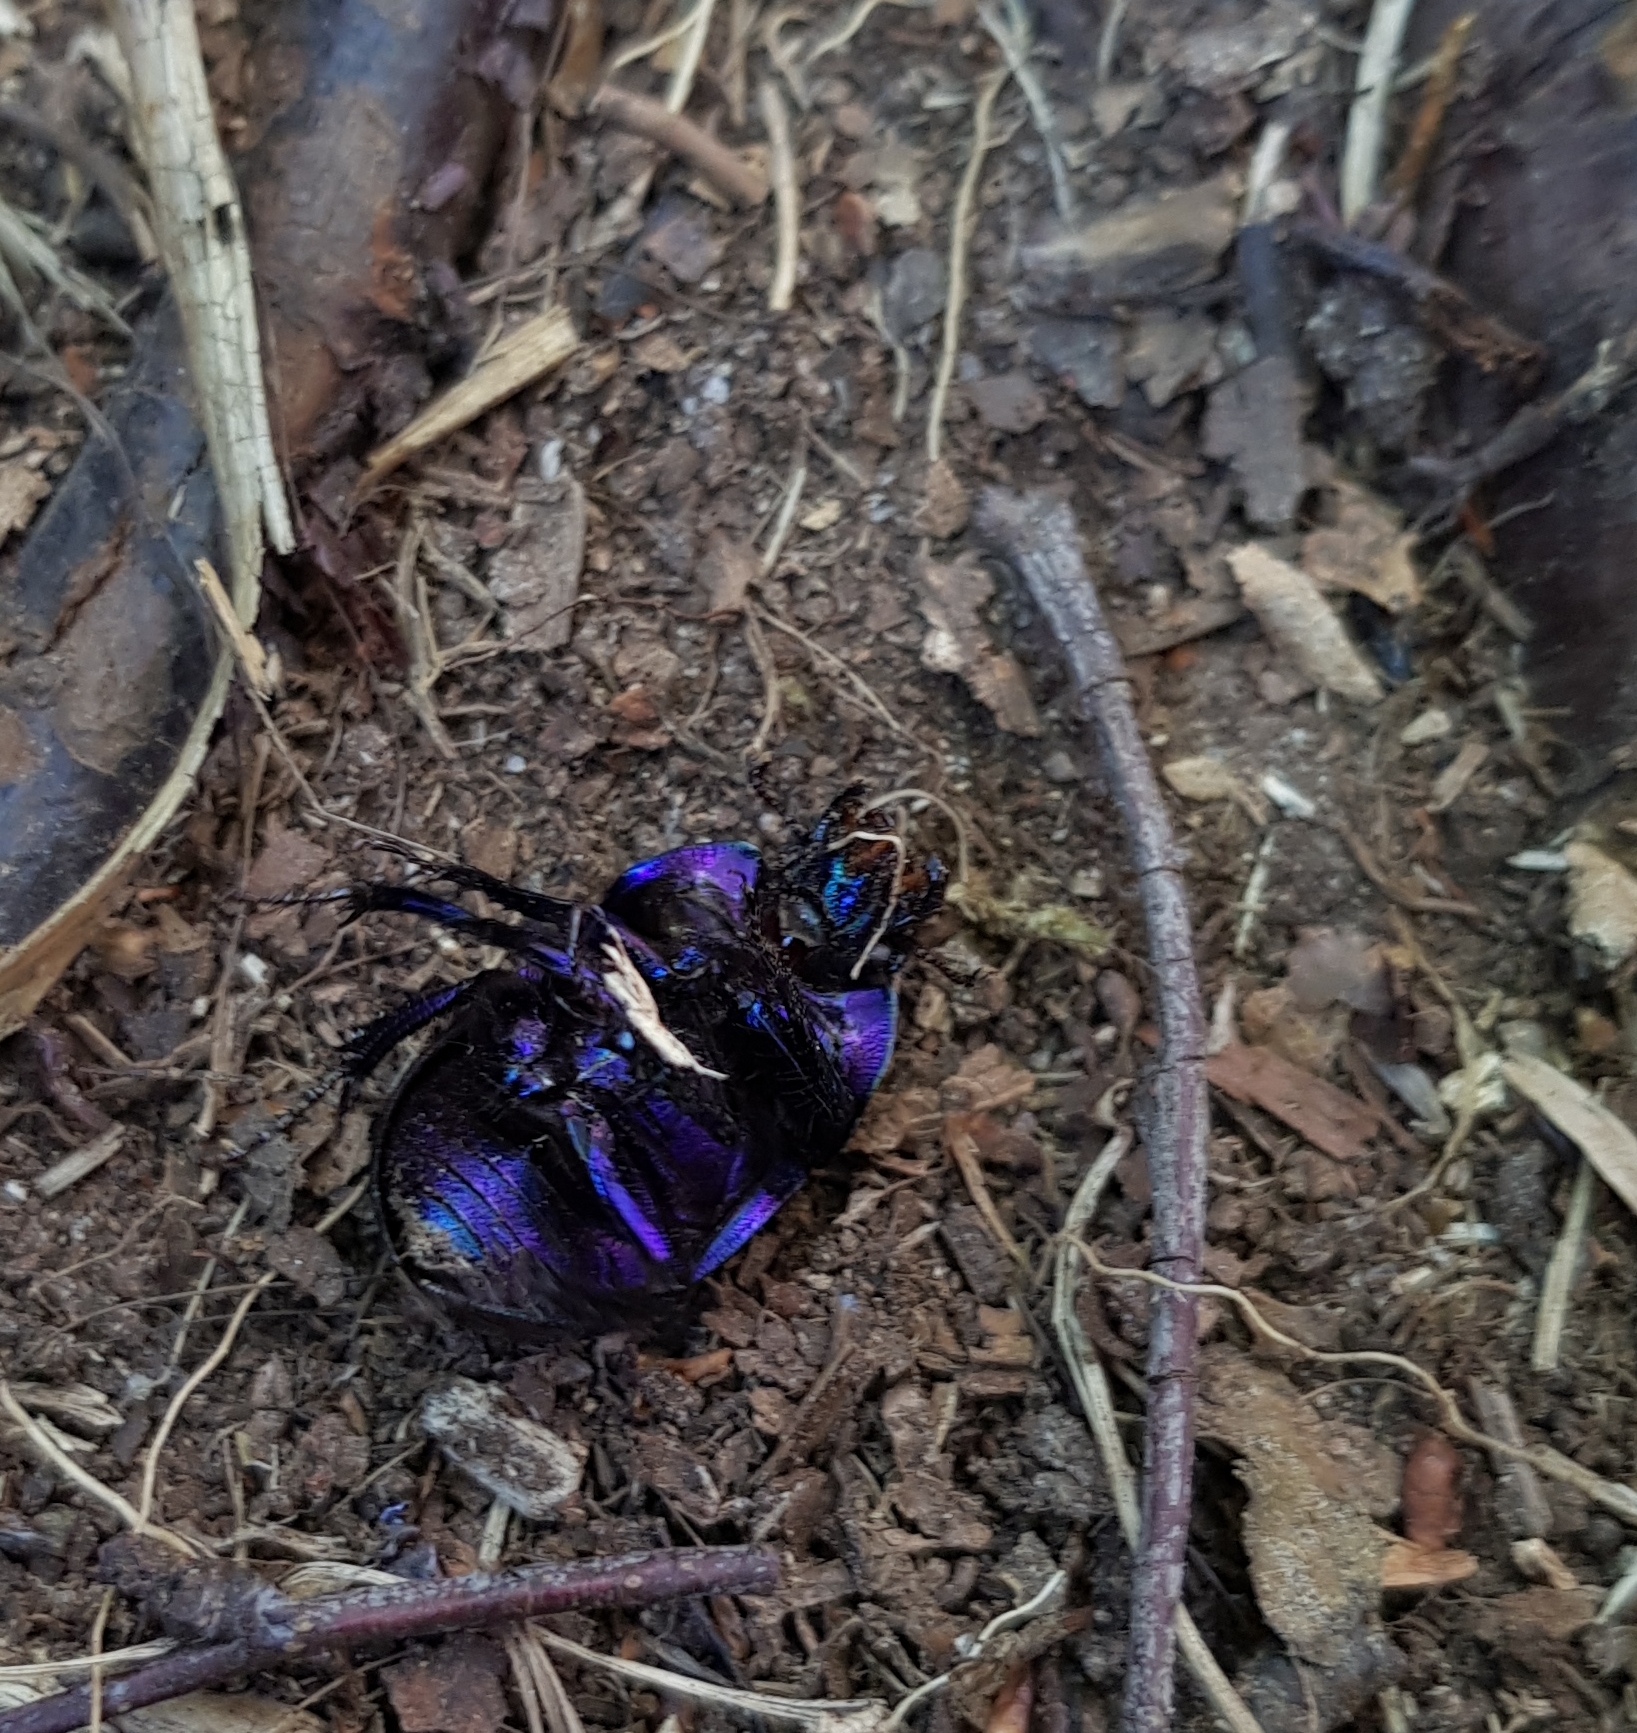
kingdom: Animalia
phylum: Arthropoda
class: Insecta
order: Coleoptera
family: Geotrupidae
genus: Anoplotrupes
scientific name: Anoplotrupes stercorosus
